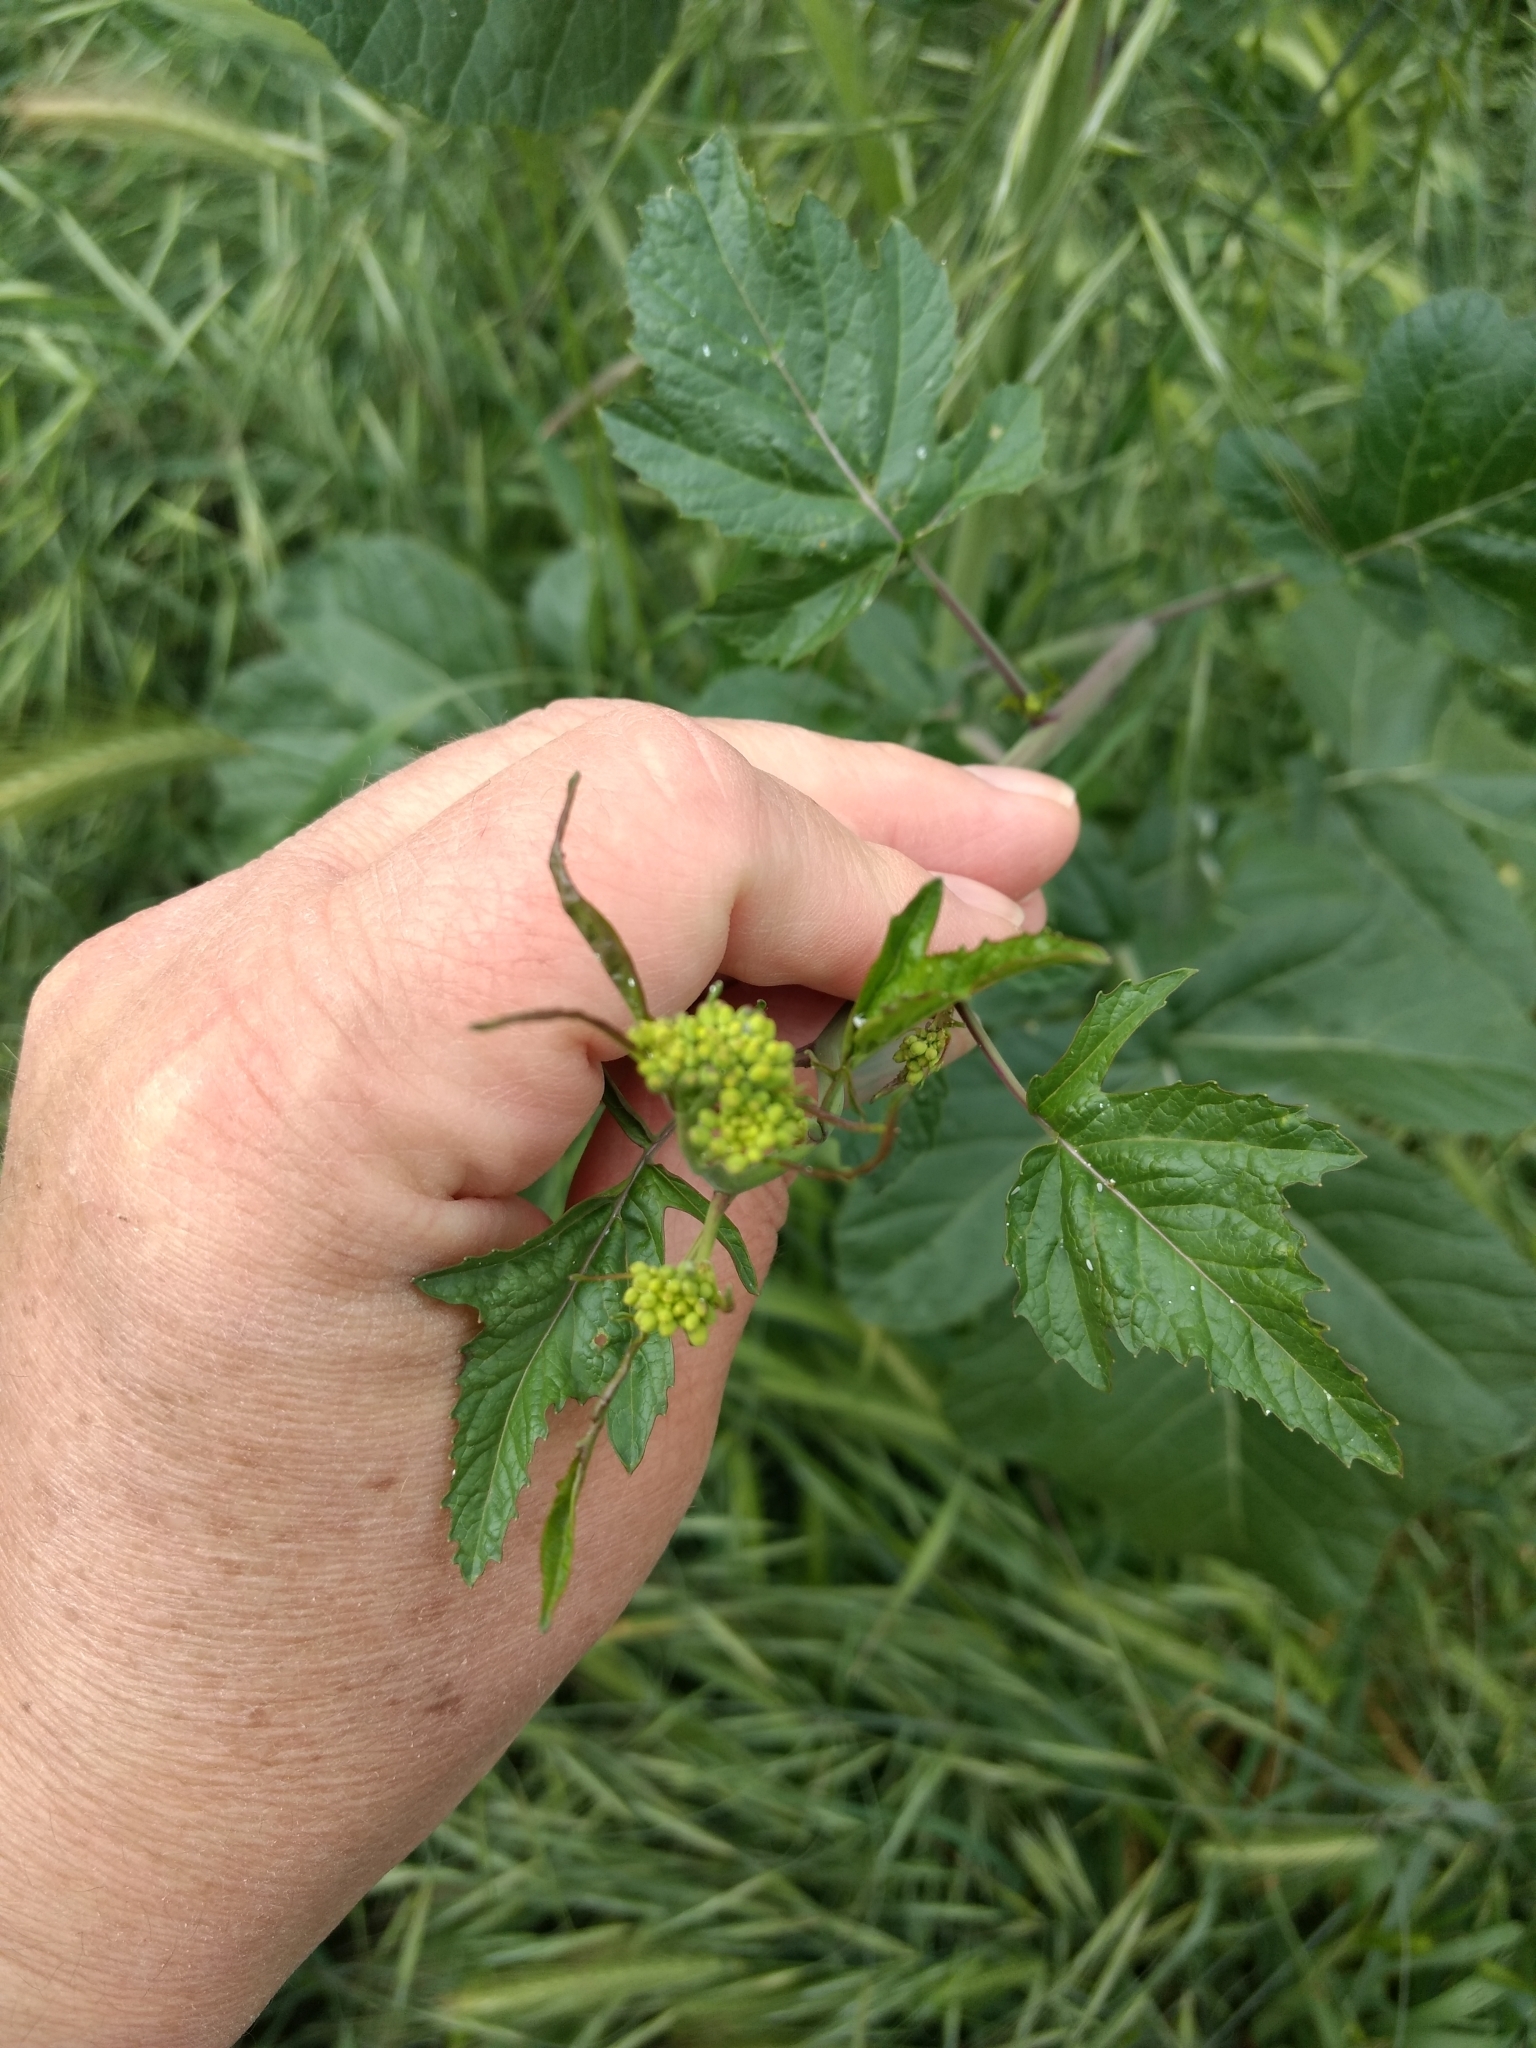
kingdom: Plantae
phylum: Tracheophyta
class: Magnoliopsida
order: Brassicales
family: Brassicaceae
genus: Brassica
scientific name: Brassica nigra
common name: Black mustard
